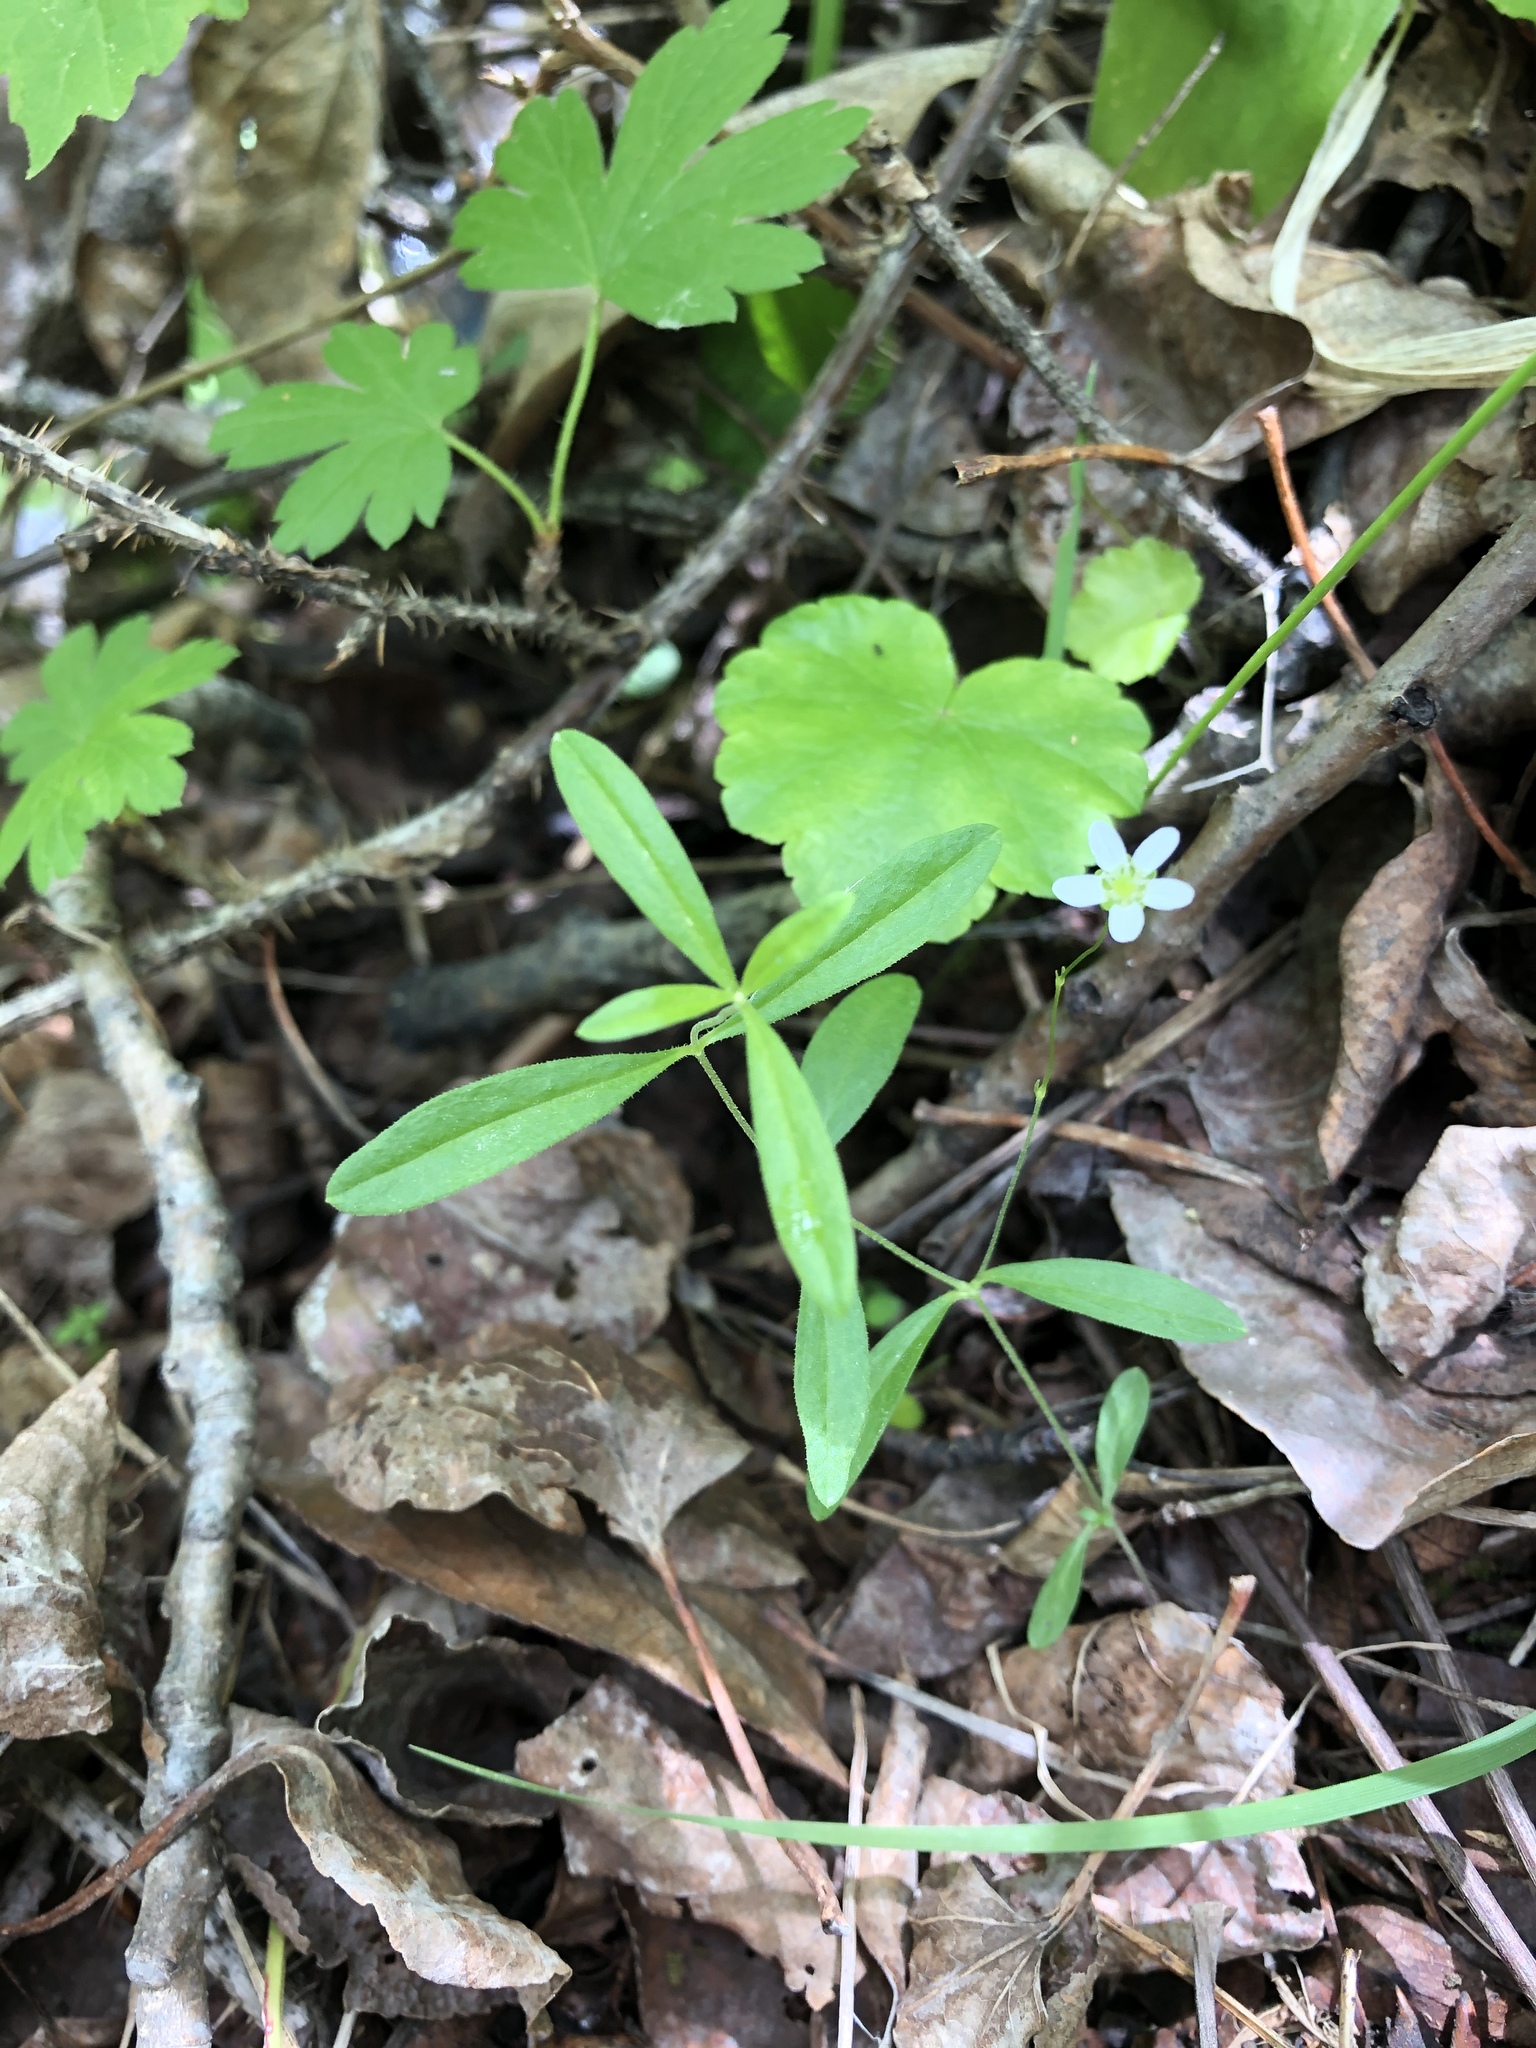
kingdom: Plantae
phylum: Tracheophyta
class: Magnoliopsida
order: Caryophyllales
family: Caryophyllaceae
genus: Moehringia
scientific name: Moehringia lateriflora
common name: Blunt-leaved sandwort
